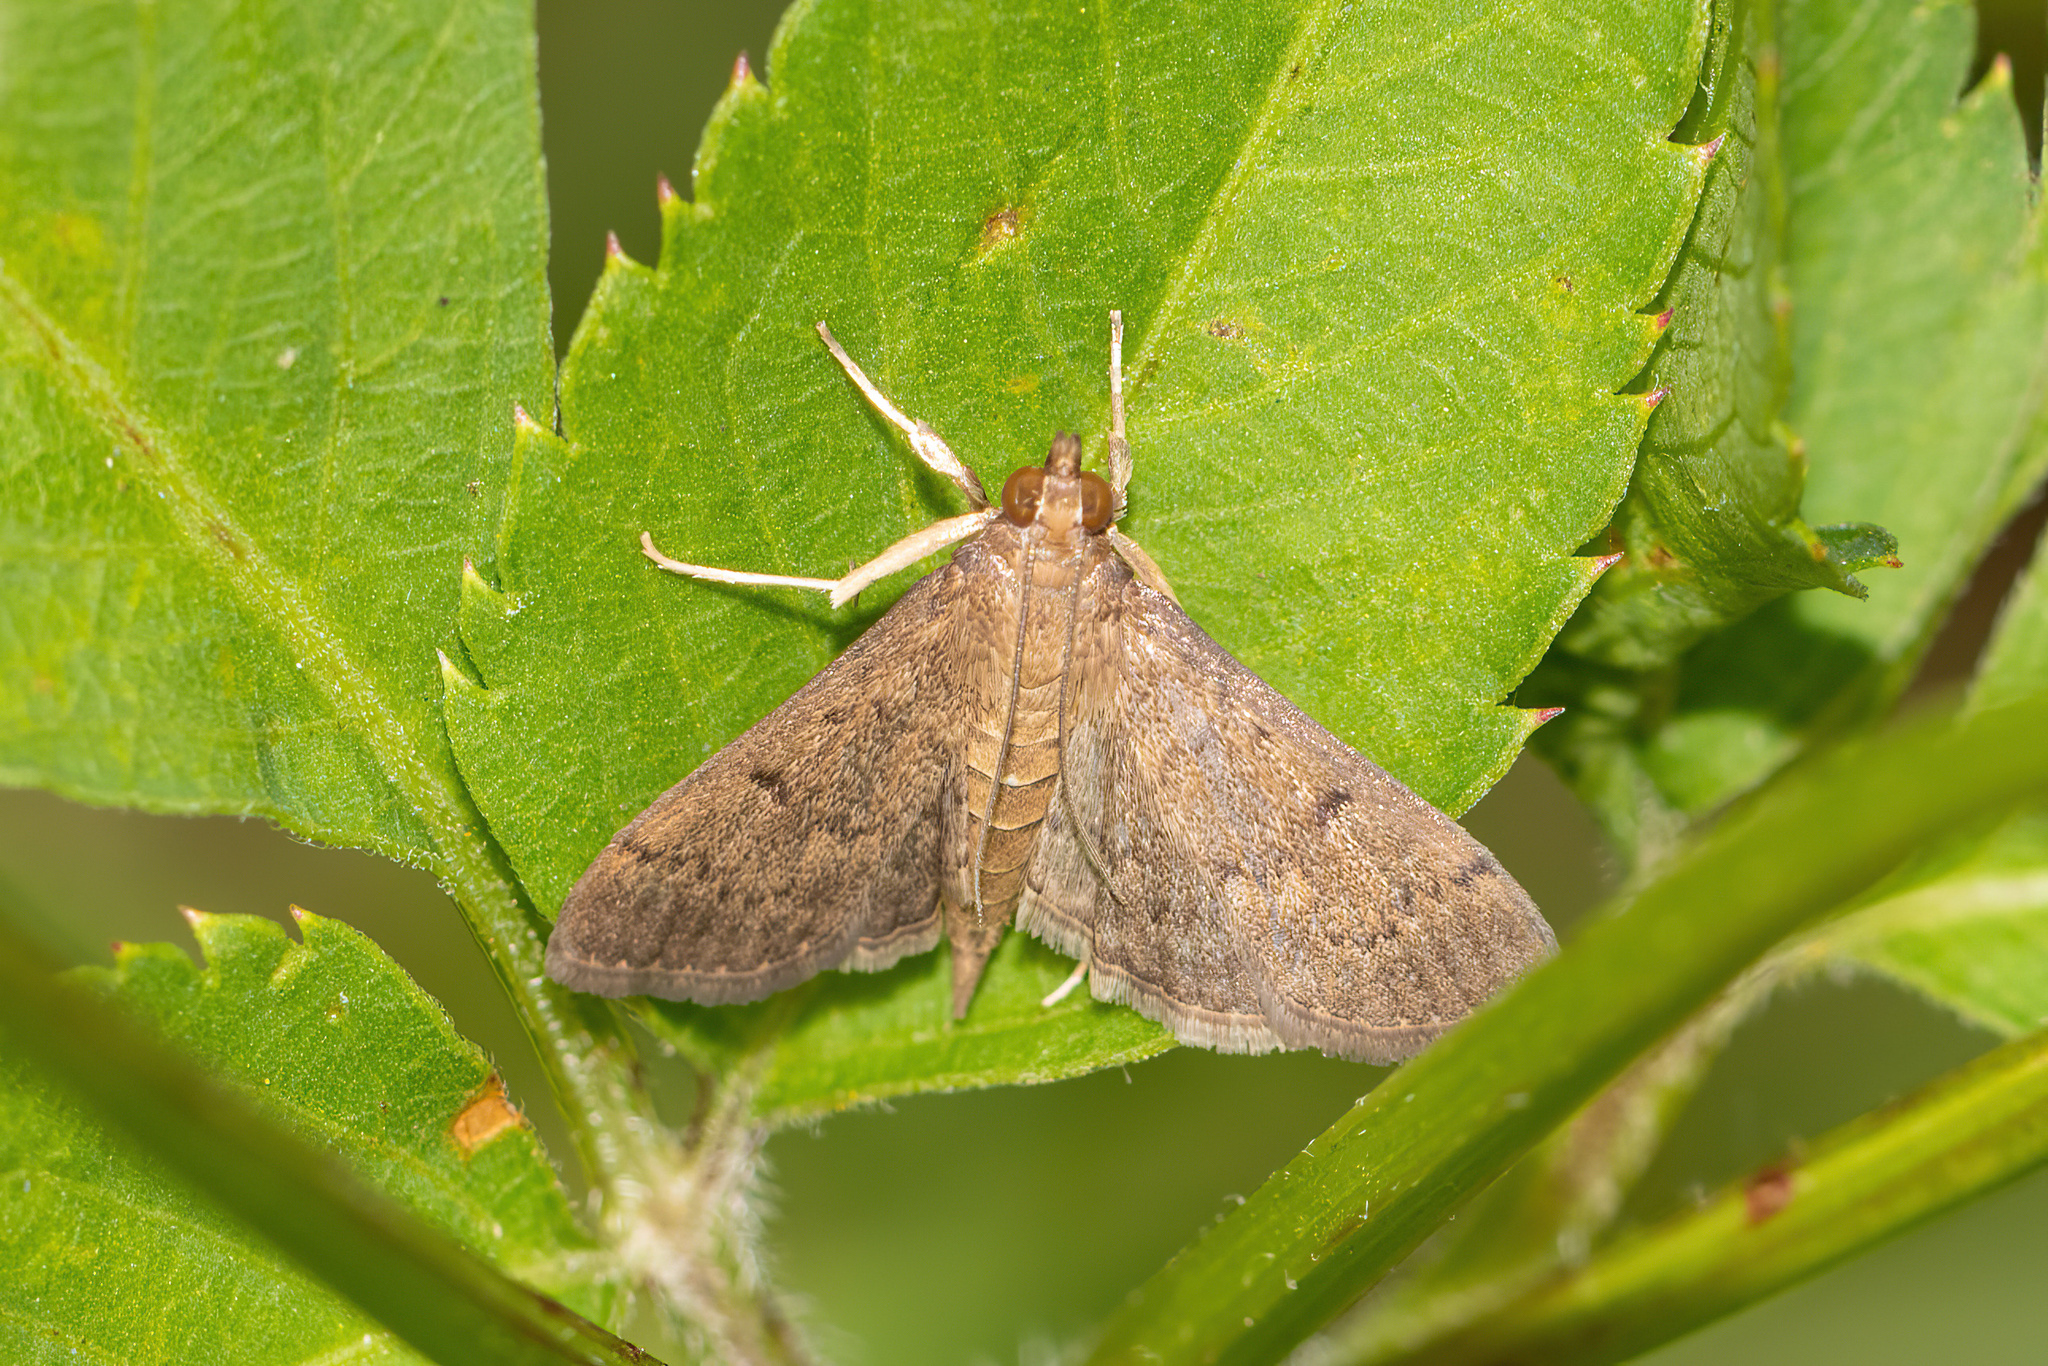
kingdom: Animalia
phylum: Arthropoda
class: Insecta
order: Lepidoptera
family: Crambidae
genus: Herpetogramma
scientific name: Herpetogramma phaeopteralis
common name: Dusky herpetogramma moth
